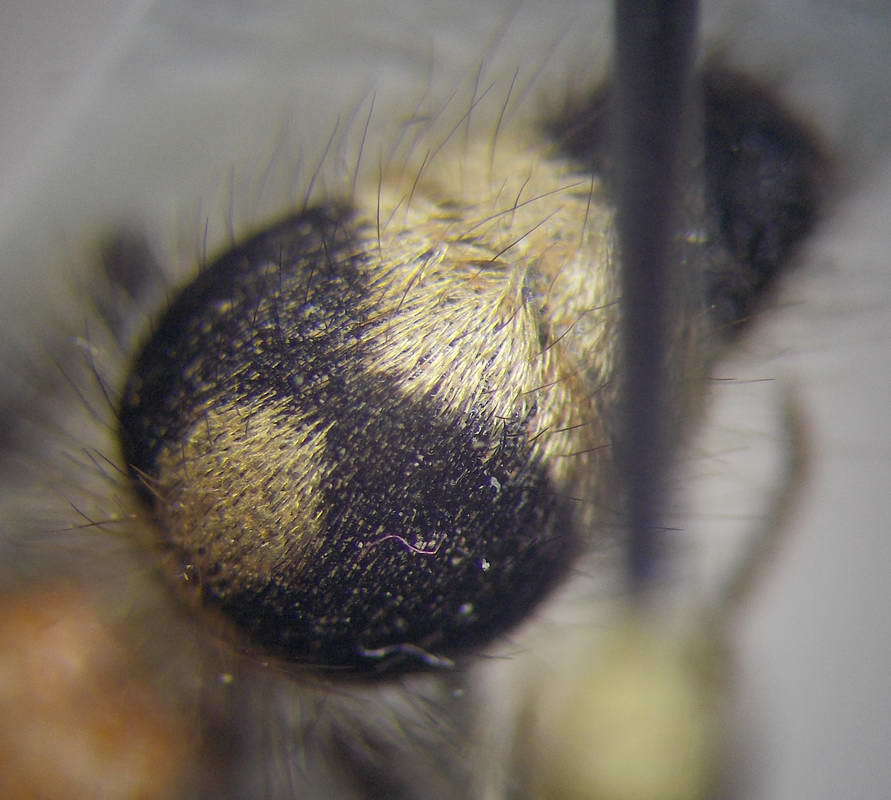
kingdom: Animalia
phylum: Arthropoda
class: Insecta
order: Hymenoptera
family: Mutillidae
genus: Nemka
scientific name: Nemka viduata
